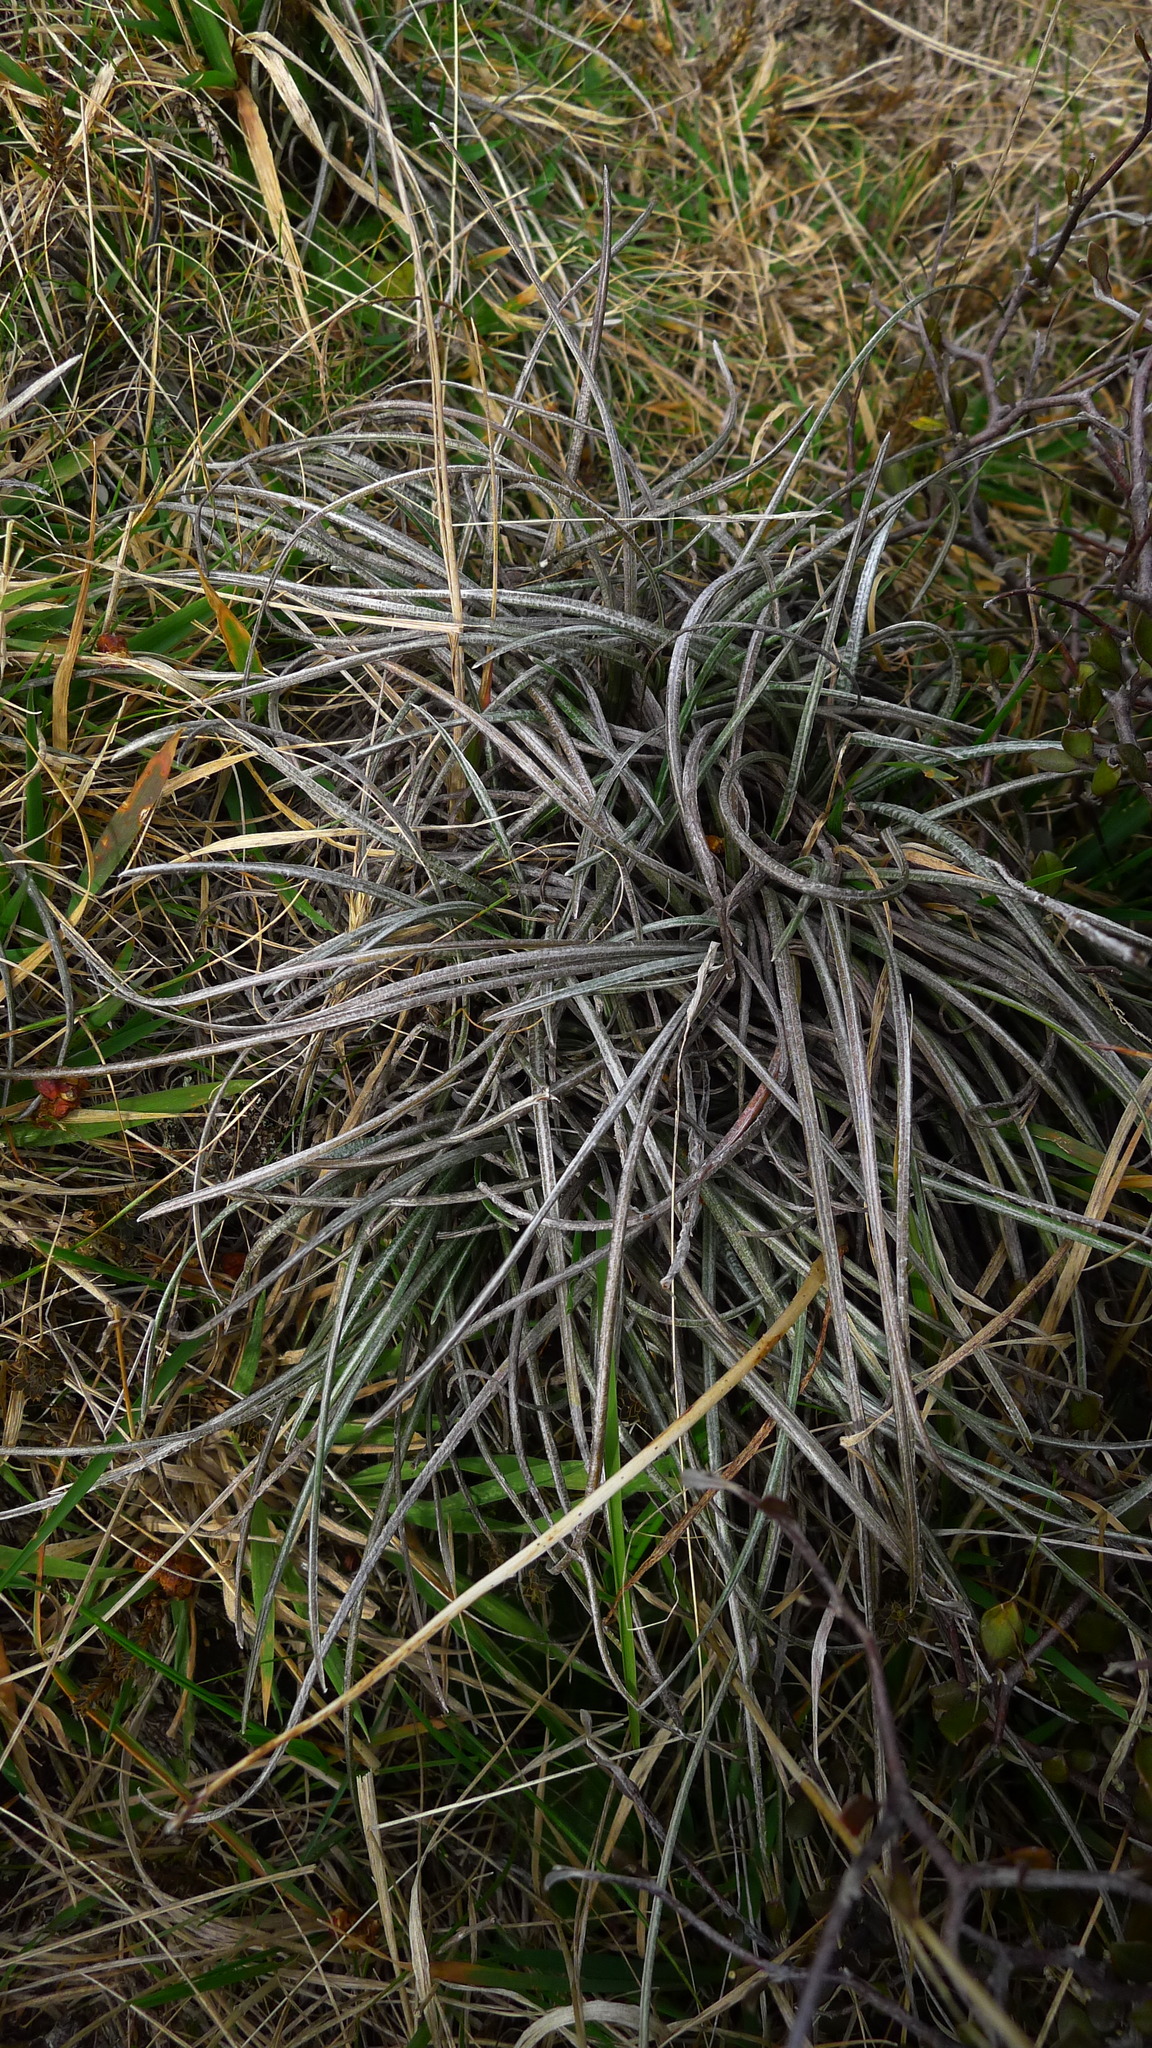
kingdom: Plantae
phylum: Tracheophyta
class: Magnoliopsida
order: Asterales
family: Asteraceae
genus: Celmisia
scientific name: Celmisia gracilenta
